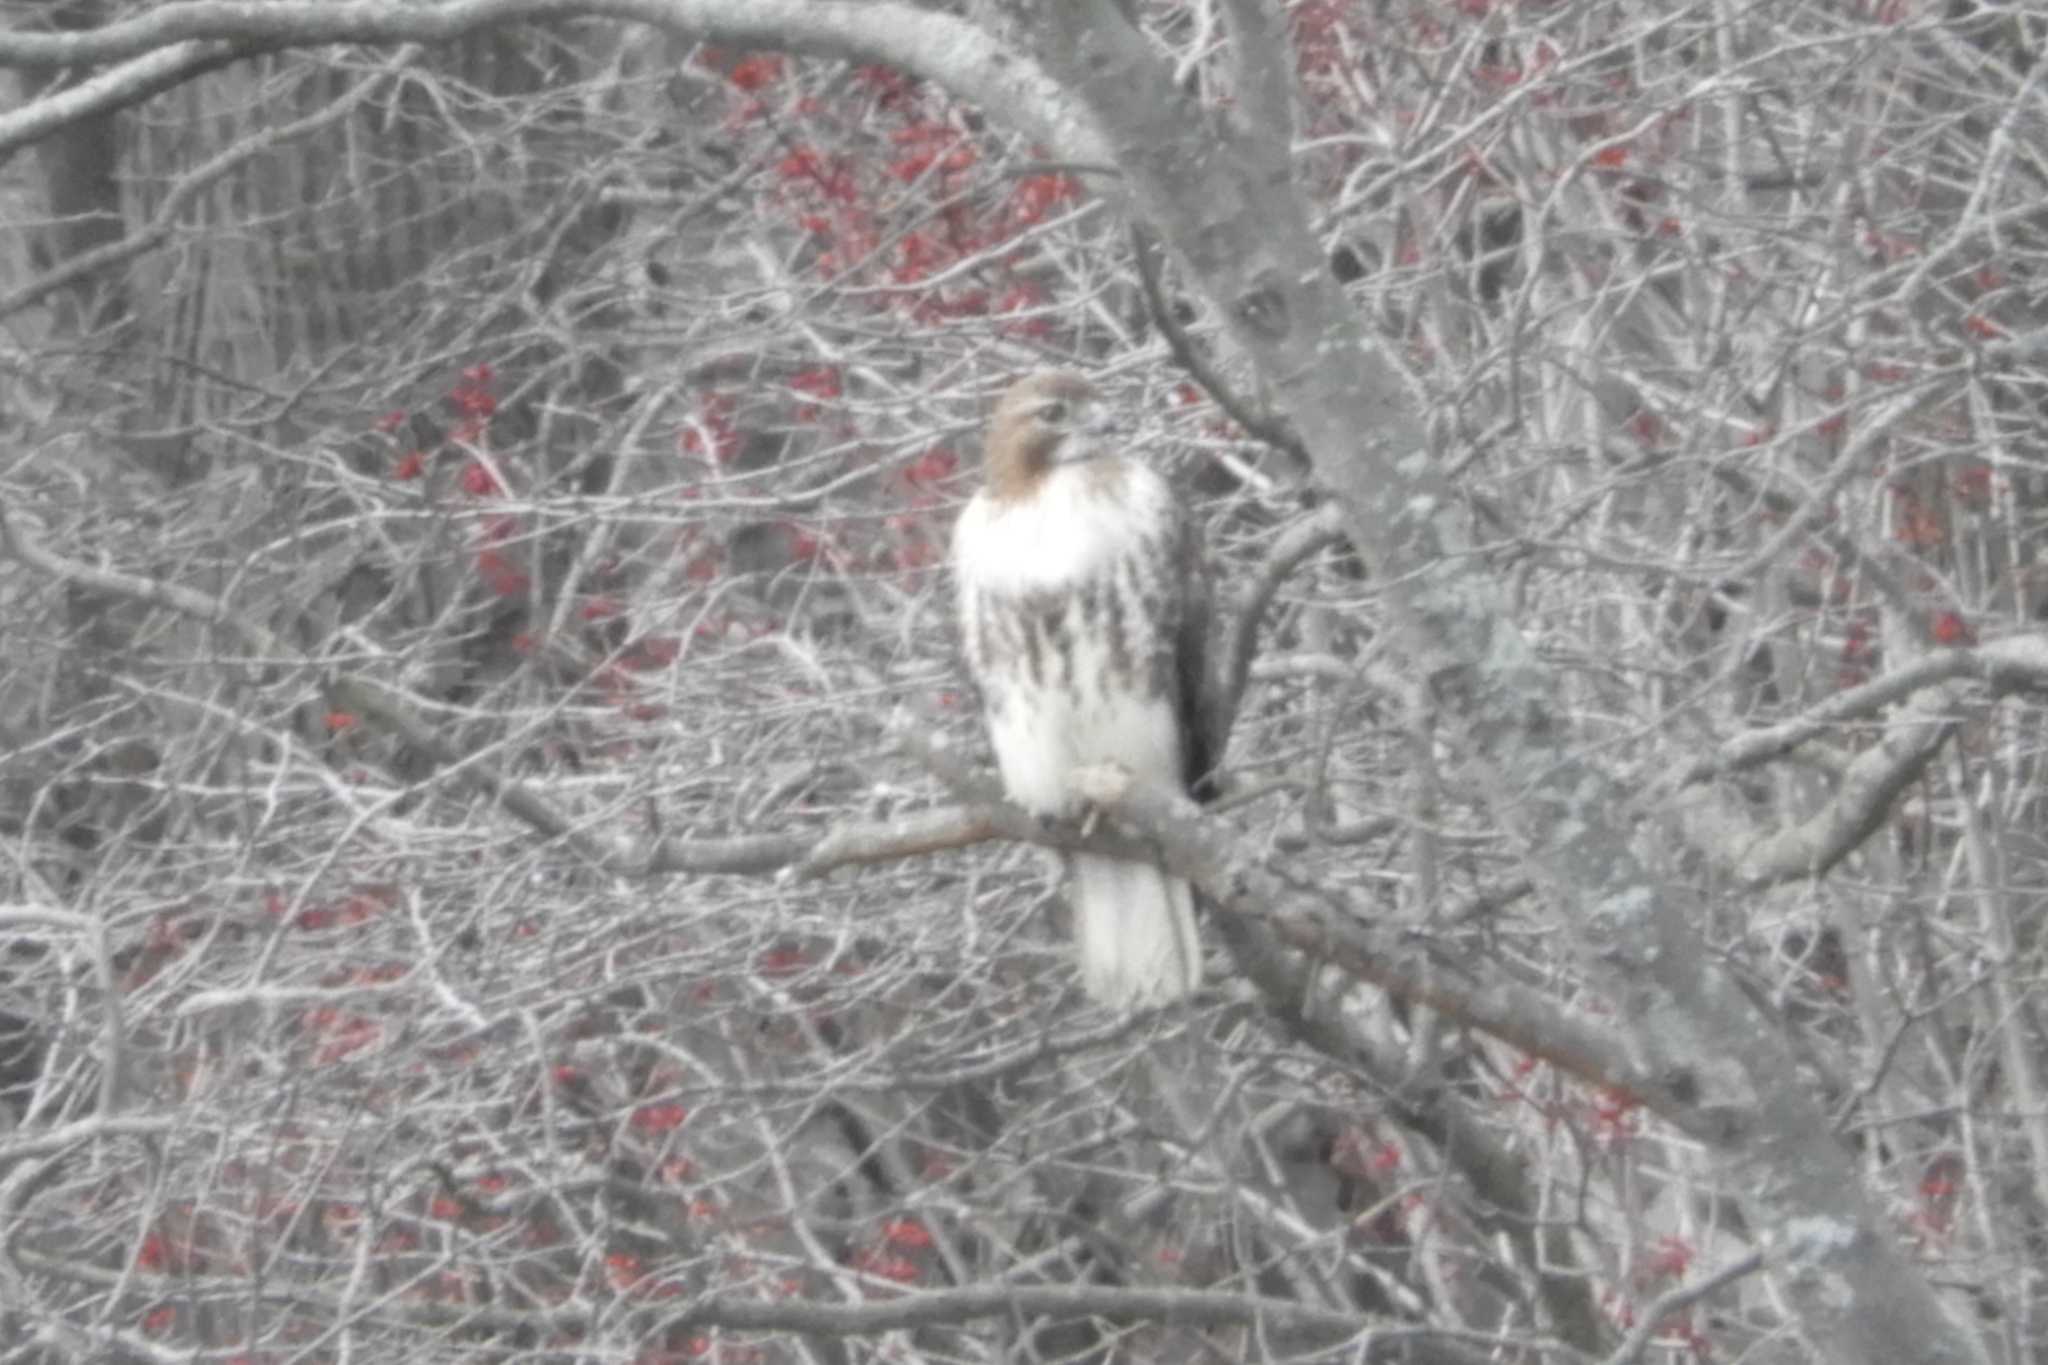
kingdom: Animalia
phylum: Chordata
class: Aves
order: Accipitriformes
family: Accipitridae
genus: Buteo
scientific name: Buteo jamaicensis
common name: Red-tailed hawk
